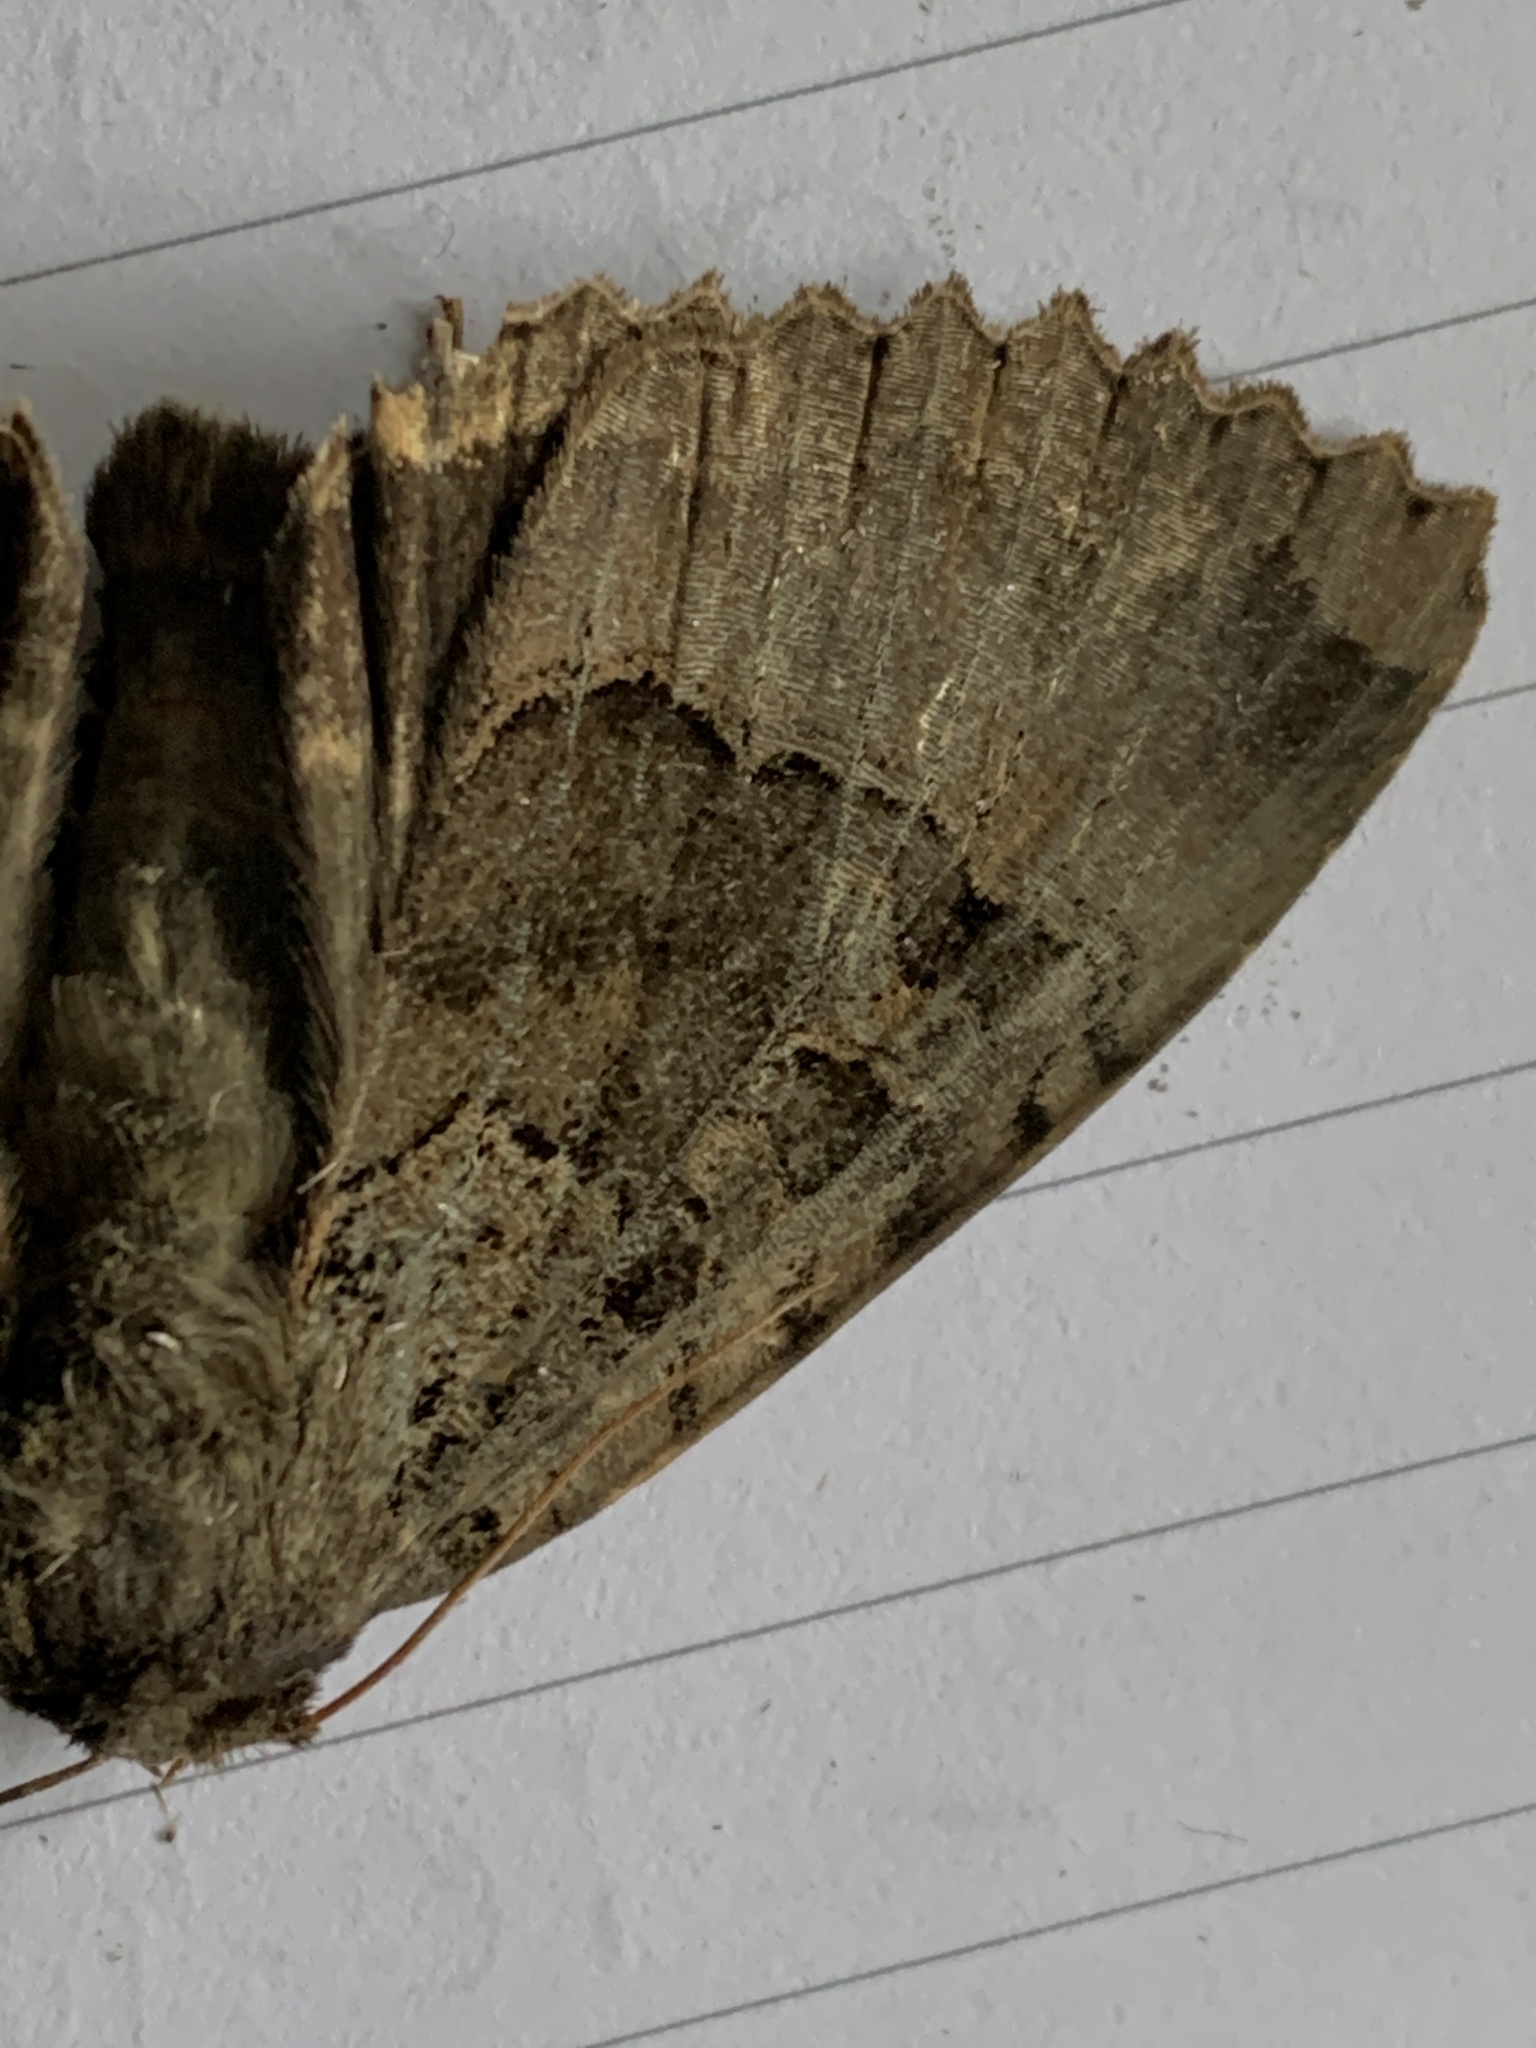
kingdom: Animalia
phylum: Arthropoda
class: Insecta
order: Lepidoptera
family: Noctuidae
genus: Mormo
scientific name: Mormo maura
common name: Old lady
